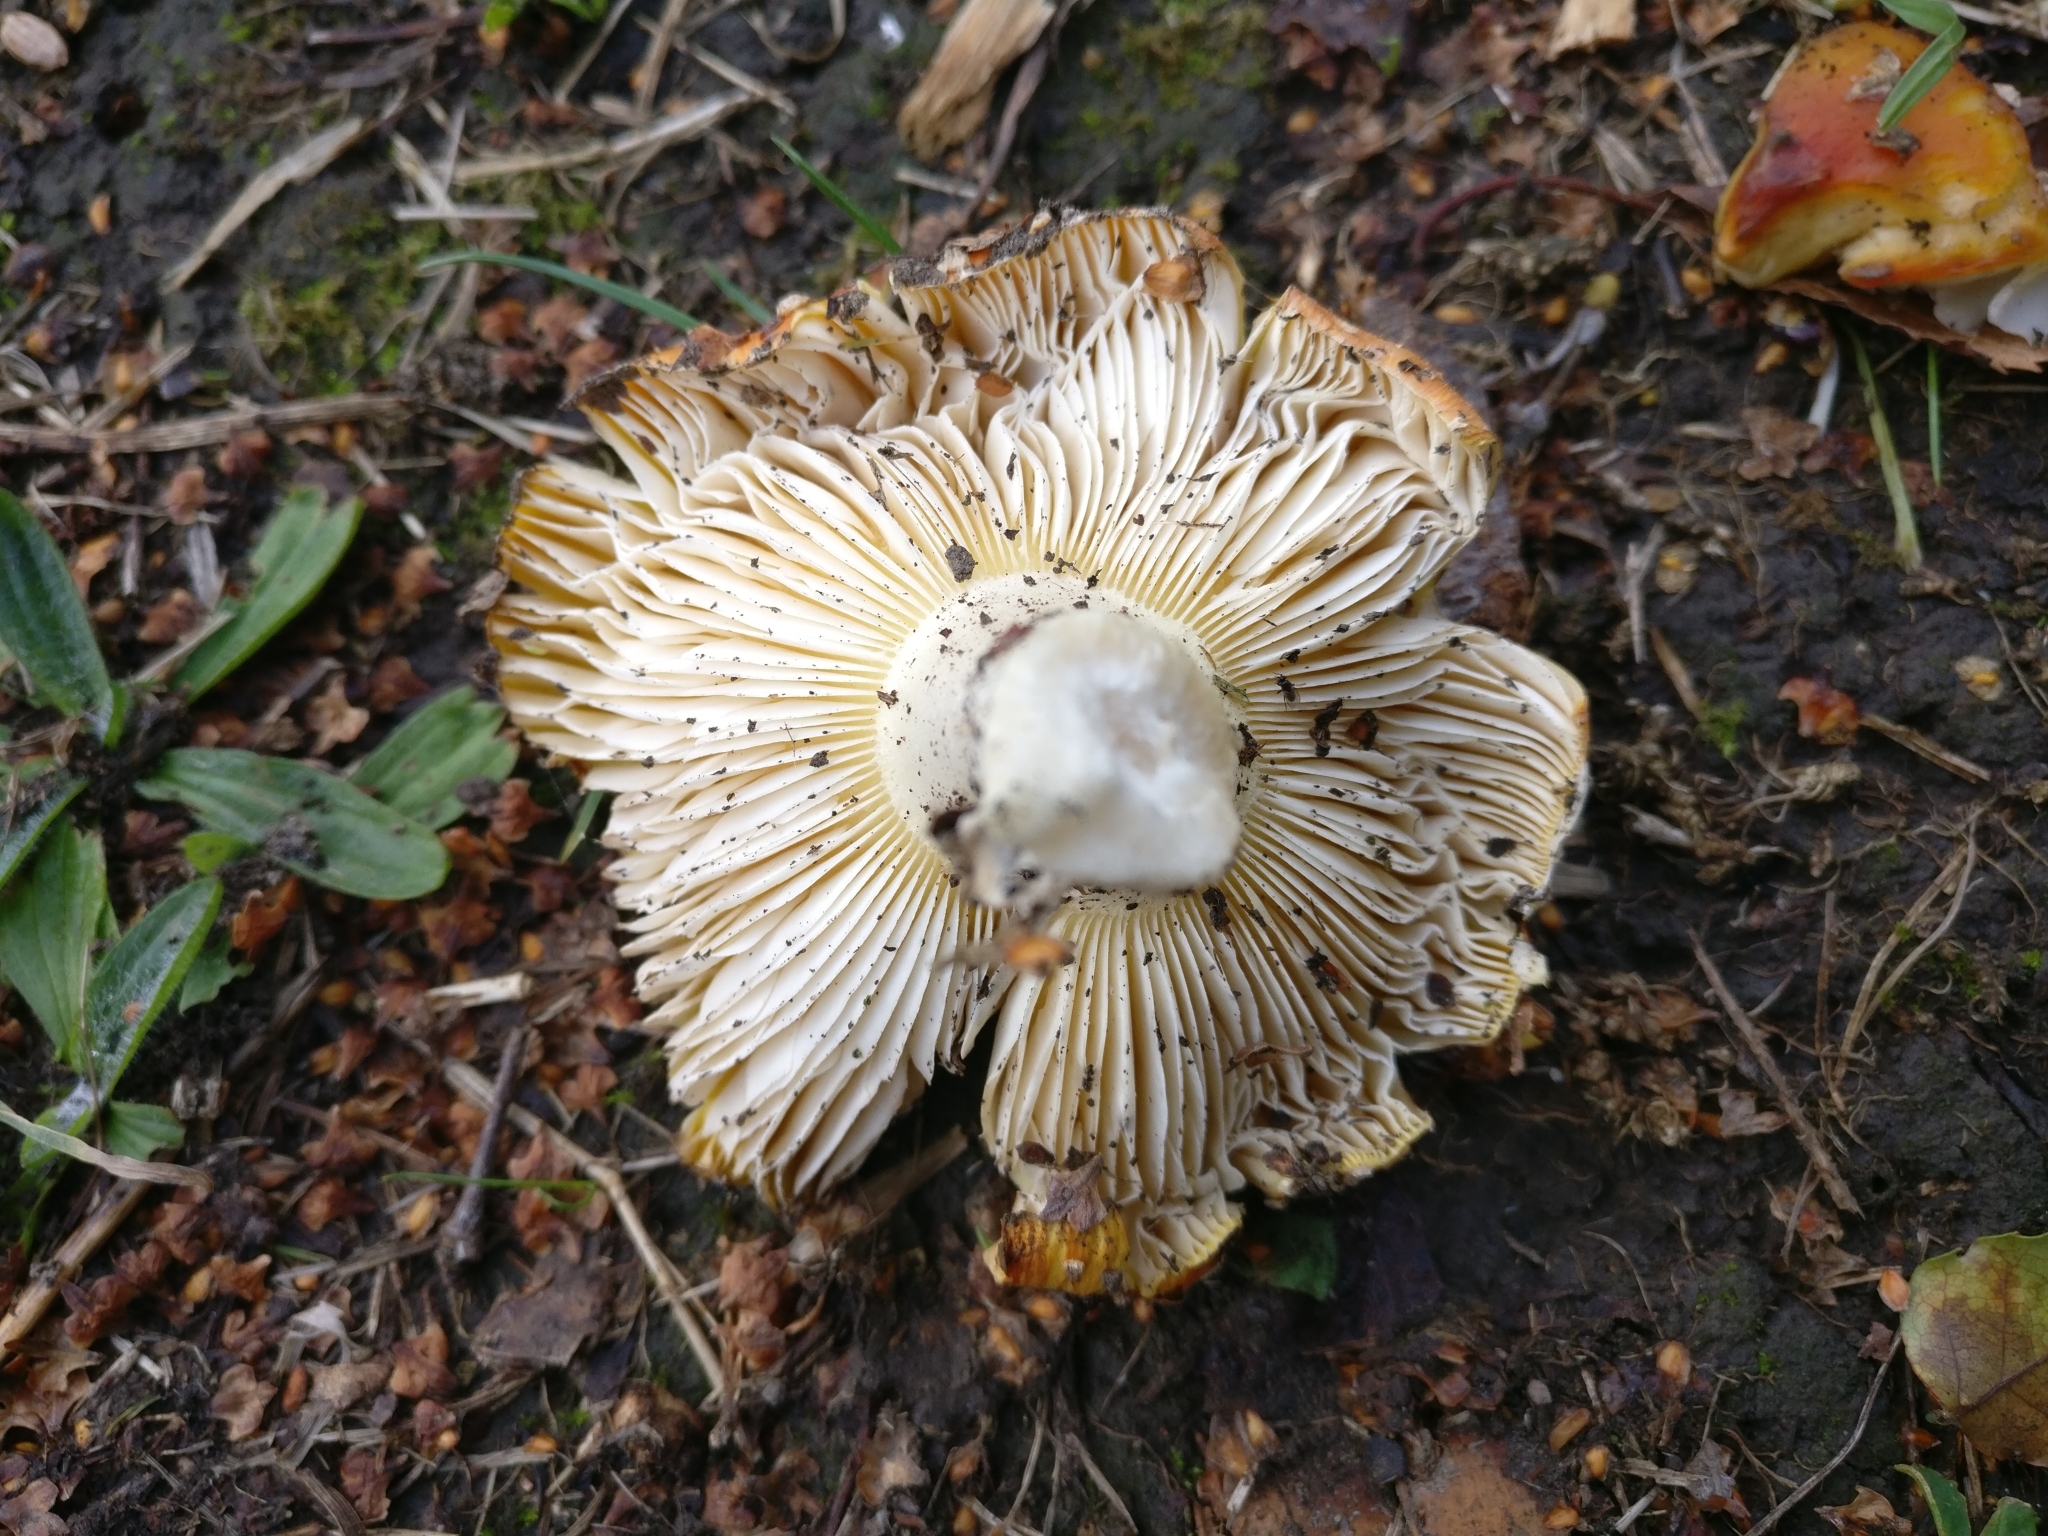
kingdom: Fungi
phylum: Basidiomycota
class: Agaricomycetes
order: Agaricales
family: Amanitaceae
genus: Amanita
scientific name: Amanita muscaria
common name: Fly agaric
